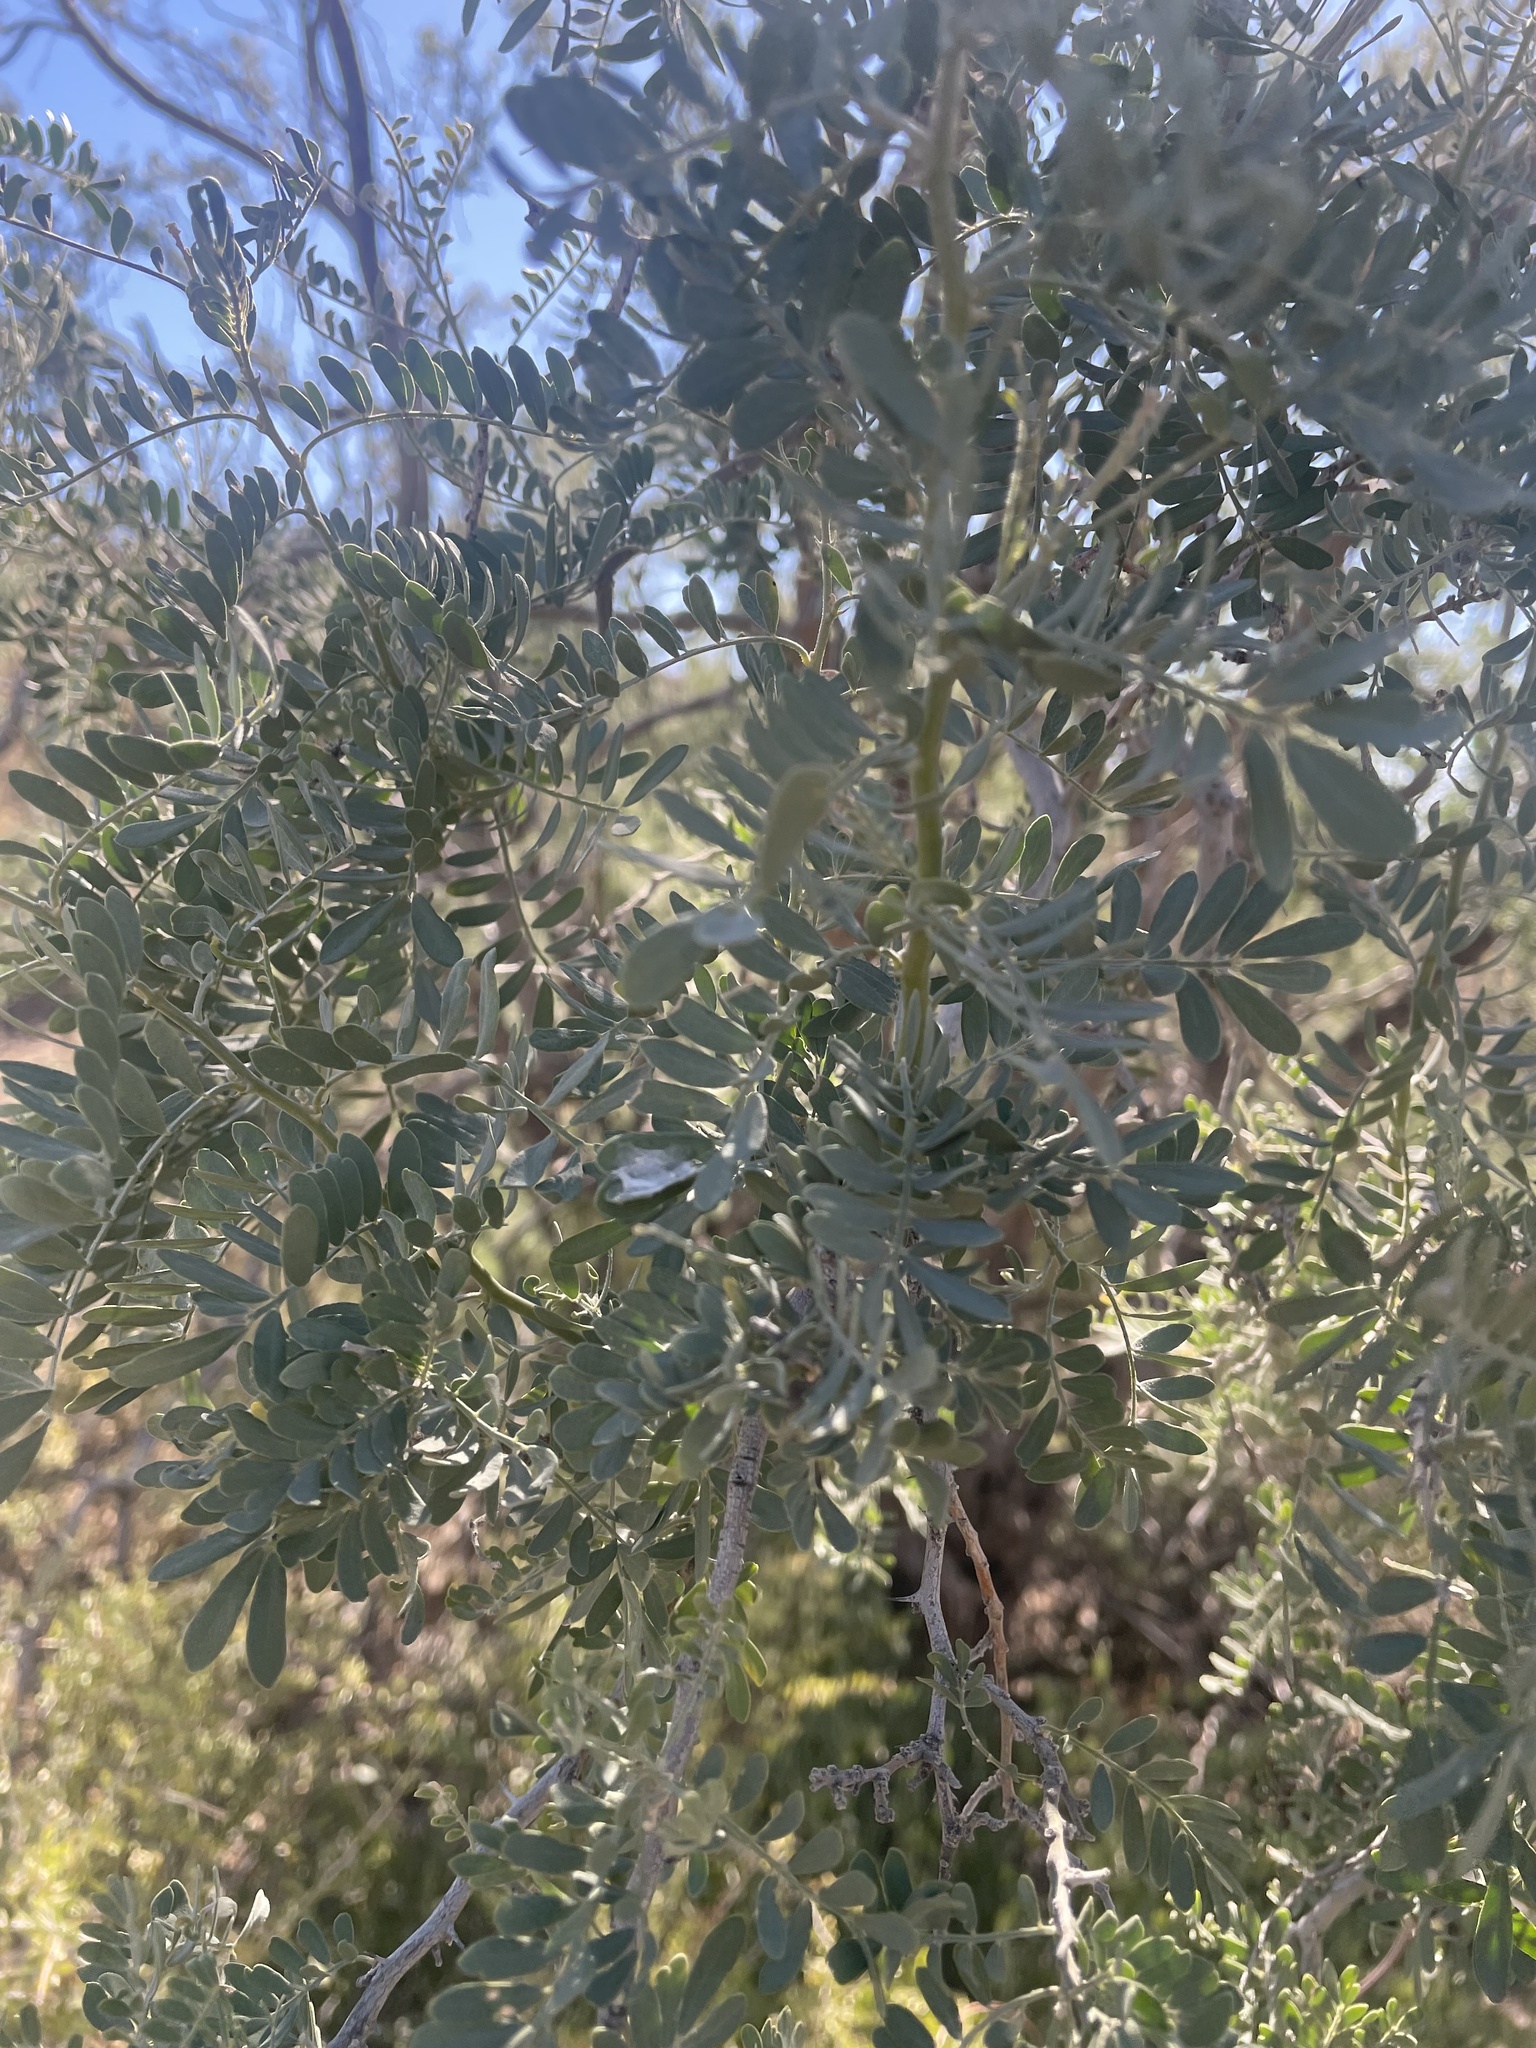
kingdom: Plantae
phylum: Tracheophyta
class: Magnoliopsida
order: Fabales
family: Fabaceae
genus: Olneya
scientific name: Olneya tesota
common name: Desert ironwood
